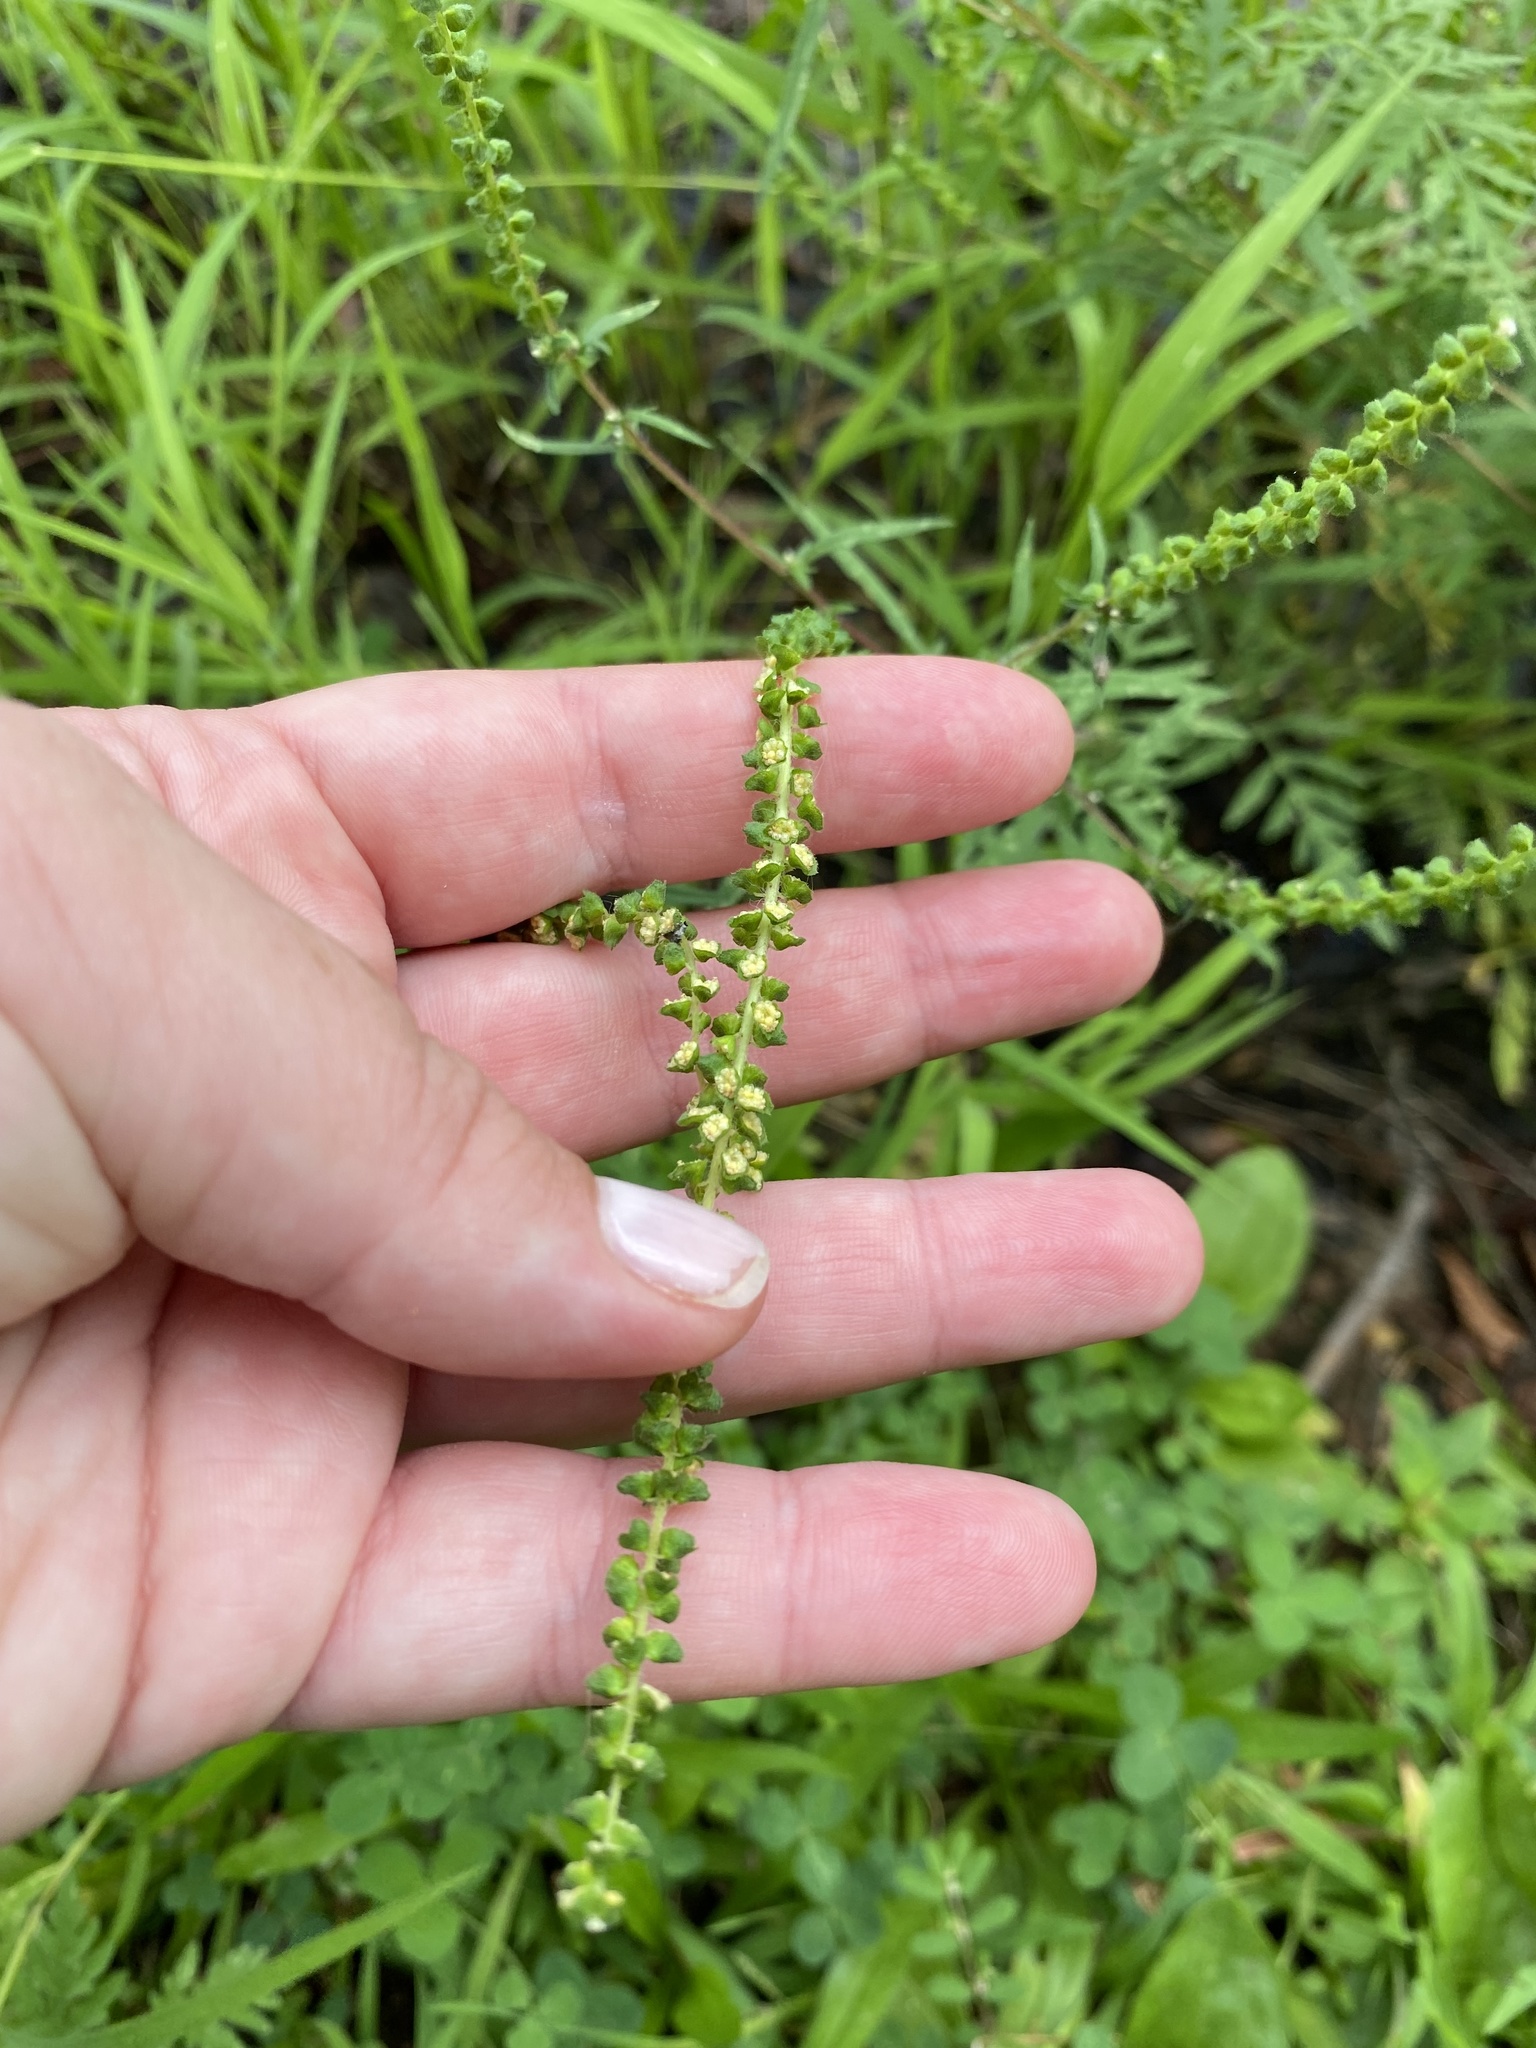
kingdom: Plantae
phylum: Tracheophyta
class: Magnoliopsida
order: Asterales
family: Asteraceae
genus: Ambrosia
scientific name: Ambrosia artemisiifolia
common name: Annual ragweed
